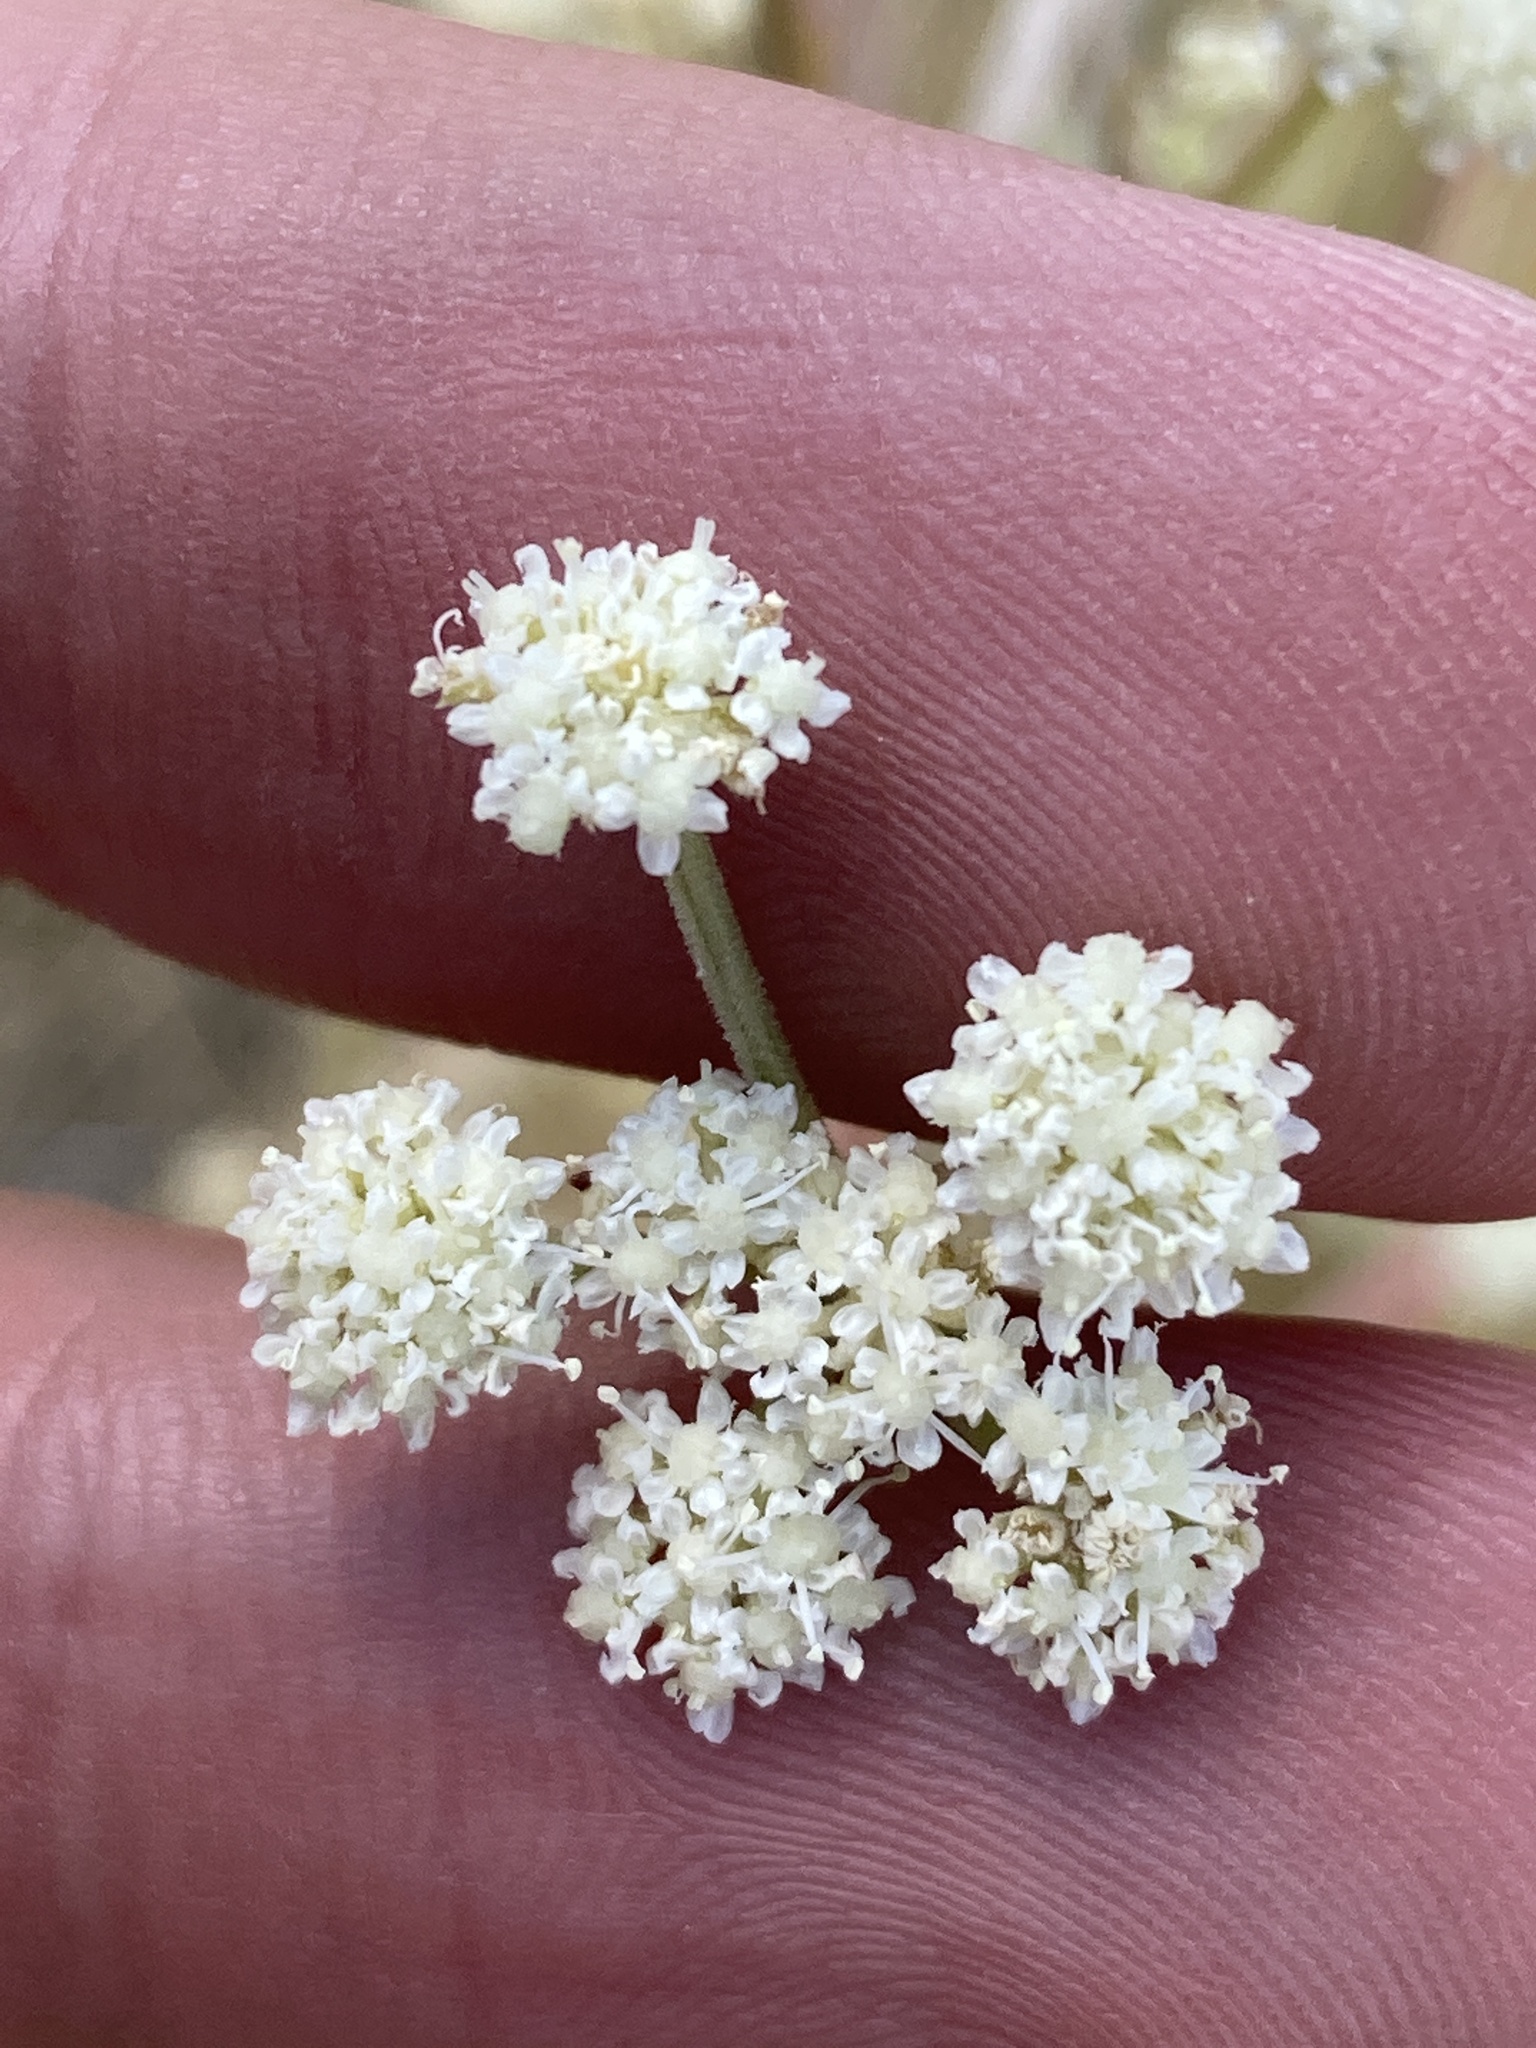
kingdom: Plantae
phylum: Tracheophyta
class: Magnoliopsida
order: Apiales
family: Apiaceae
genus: Seseli
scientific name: Seseli arenarium
